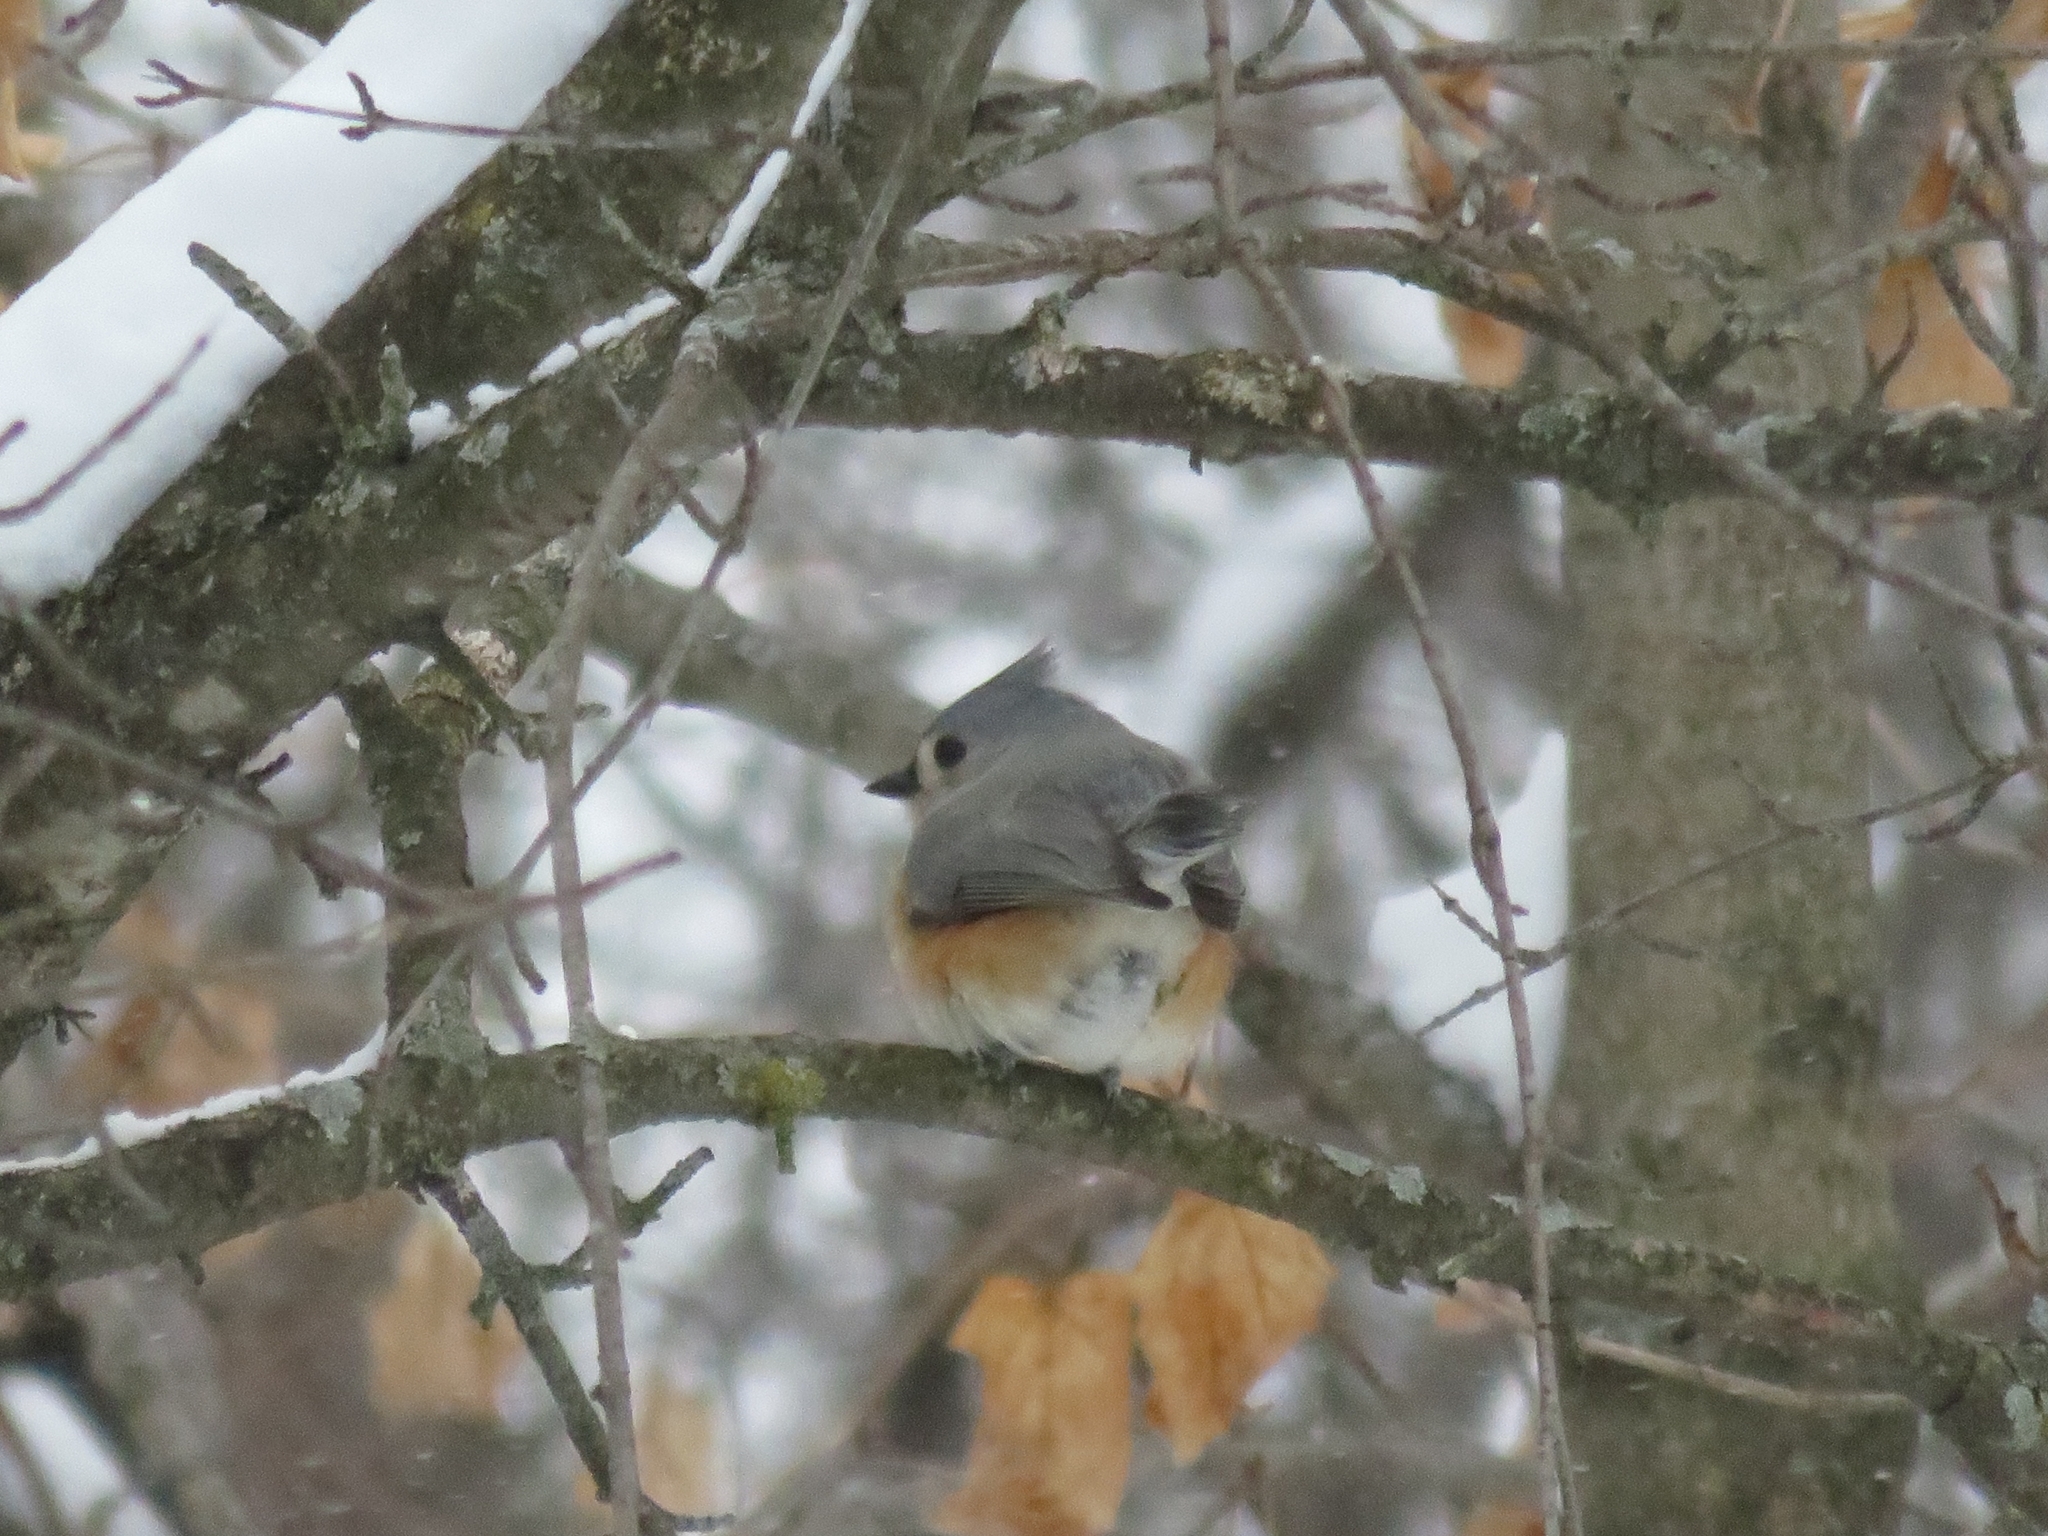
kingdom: Animalia
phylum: Chordata
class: Aves
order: Passeriformes
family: Paridae
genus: Baeolophus
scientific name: Baeolophus bicolor
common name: Tufted titmouse
